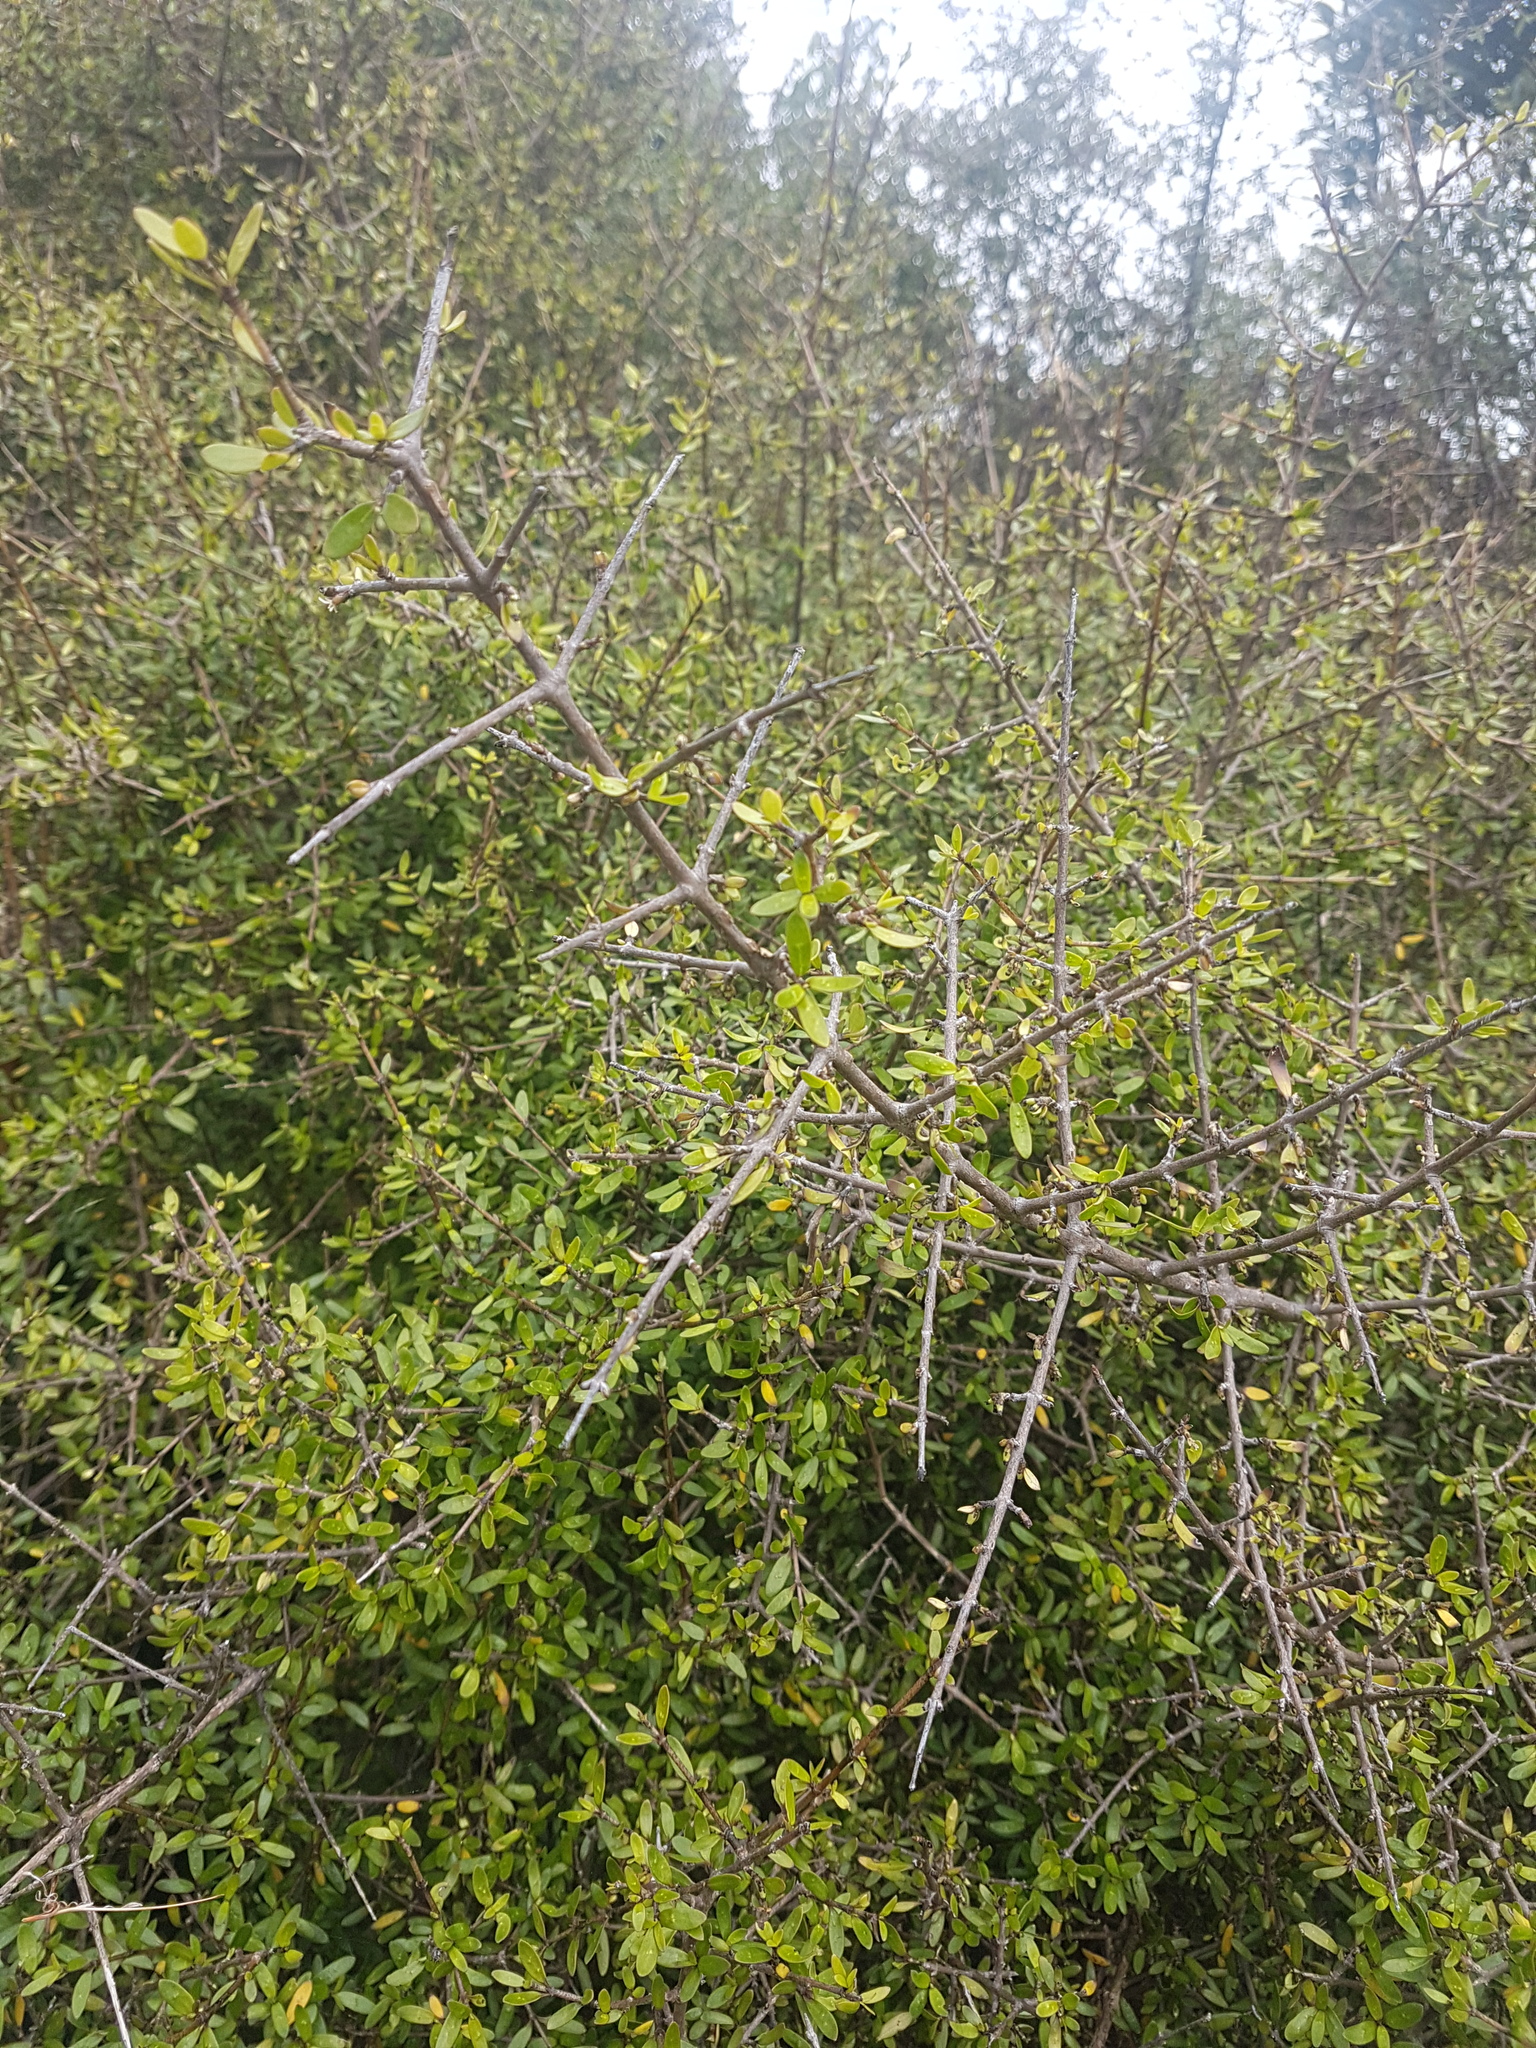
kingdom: Plantae
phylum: Tracheophyta
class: Magnoliopsida
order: Gentianales
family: Rubiaceae
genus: Coprosma
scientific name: Coprosma propinqua
